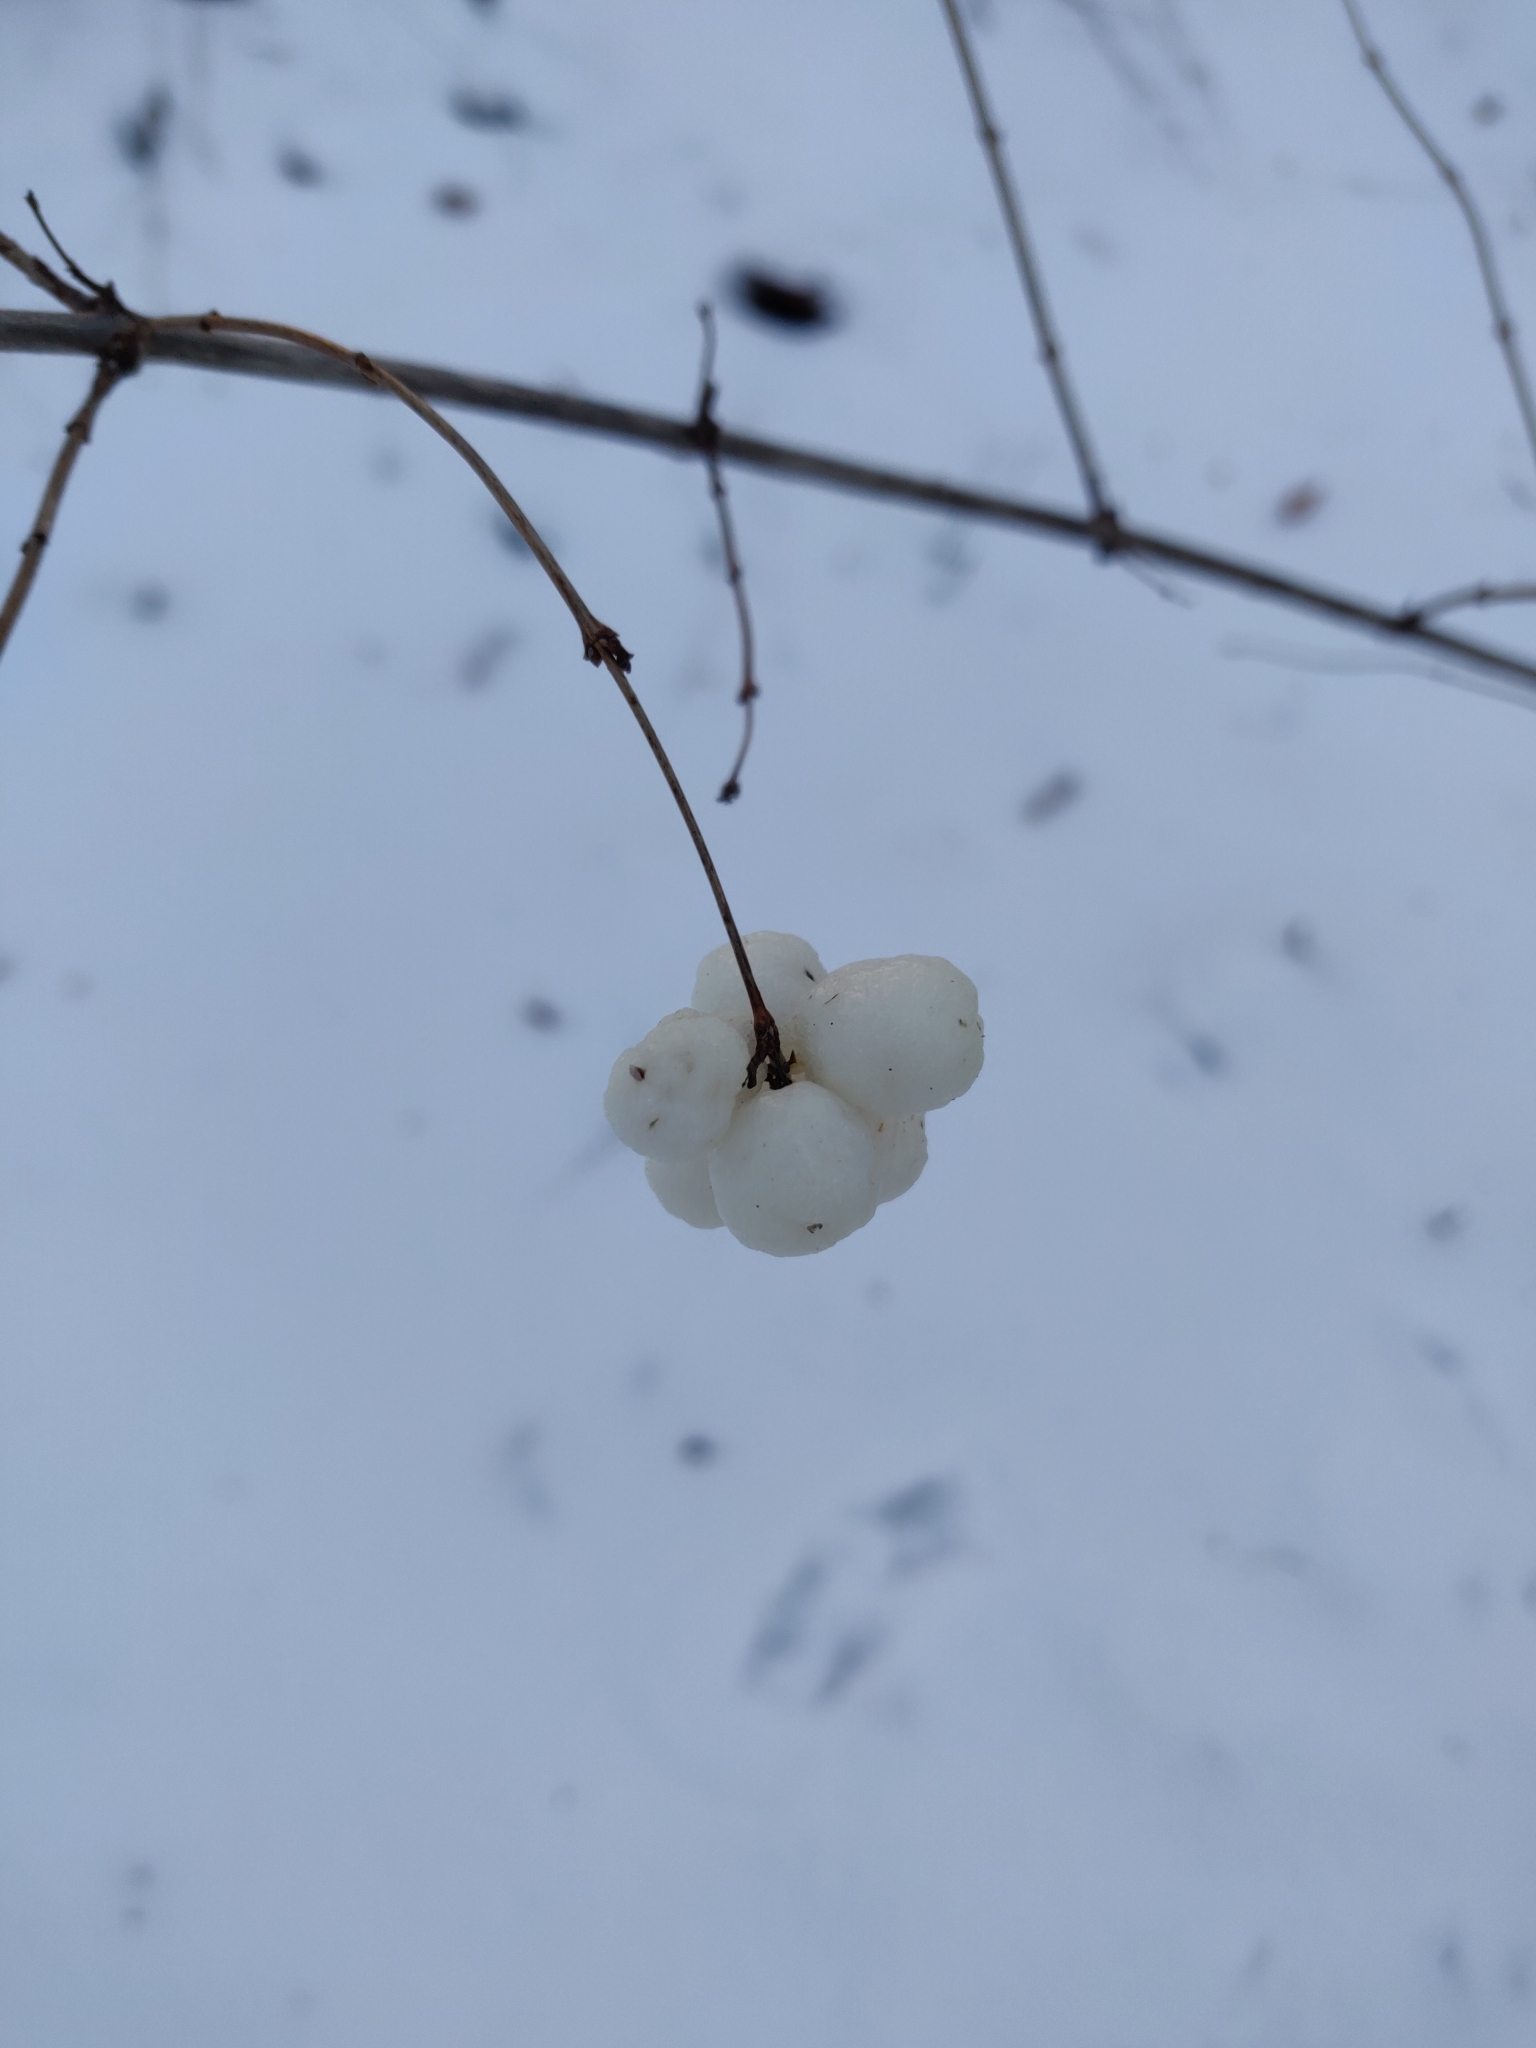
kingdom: Plantae
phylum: Tracheophyta
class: Magnoliopsida
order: Dipsacales
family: Caprifoliaceae
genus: Symphoricarpos
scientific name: Symphoricarpos albus
